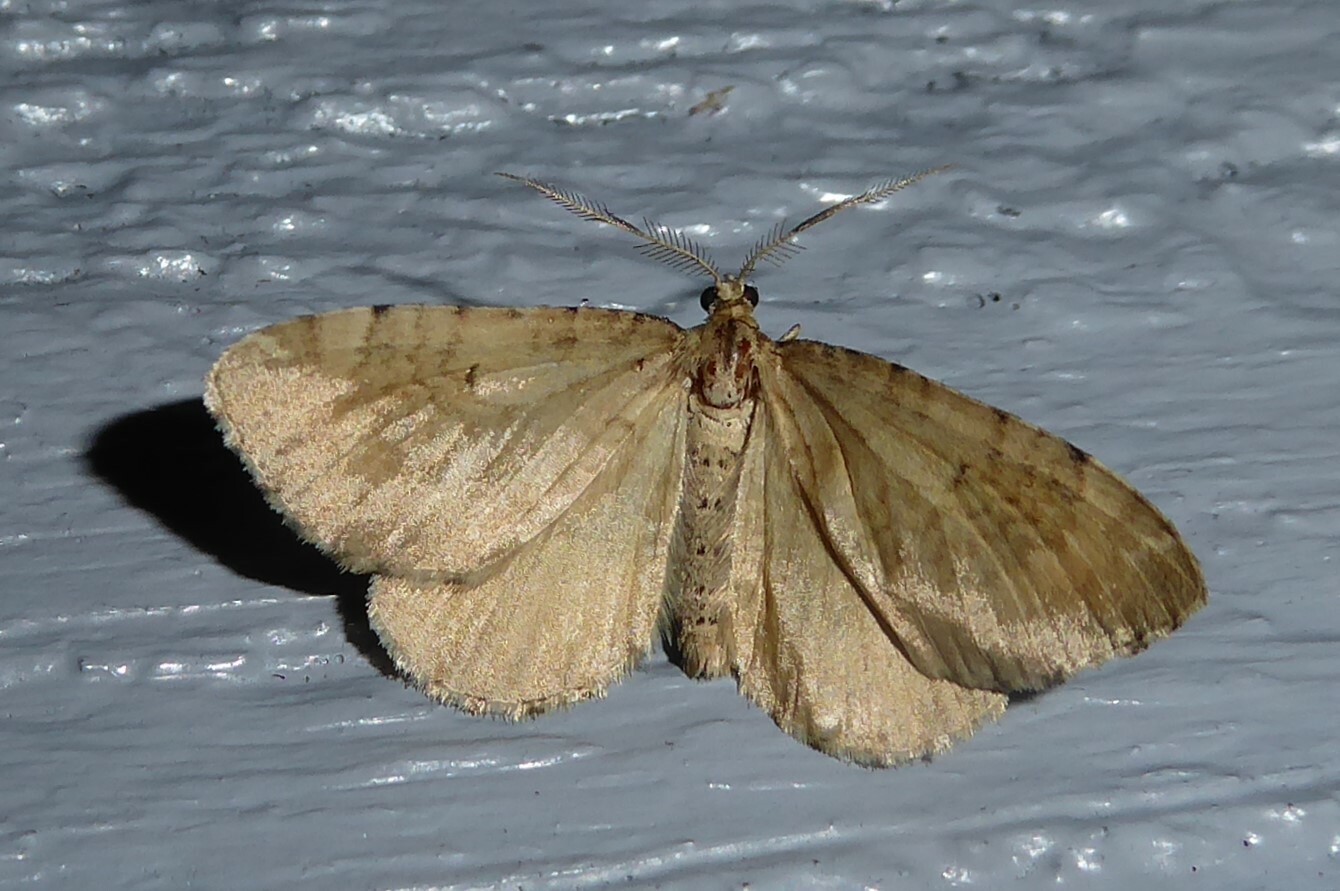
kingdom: Animalia
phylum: Arthropoda
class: Insecta
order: Lepidoptera
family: Geometridae
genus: Asaphodes
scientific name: Asaphodes aegrota
